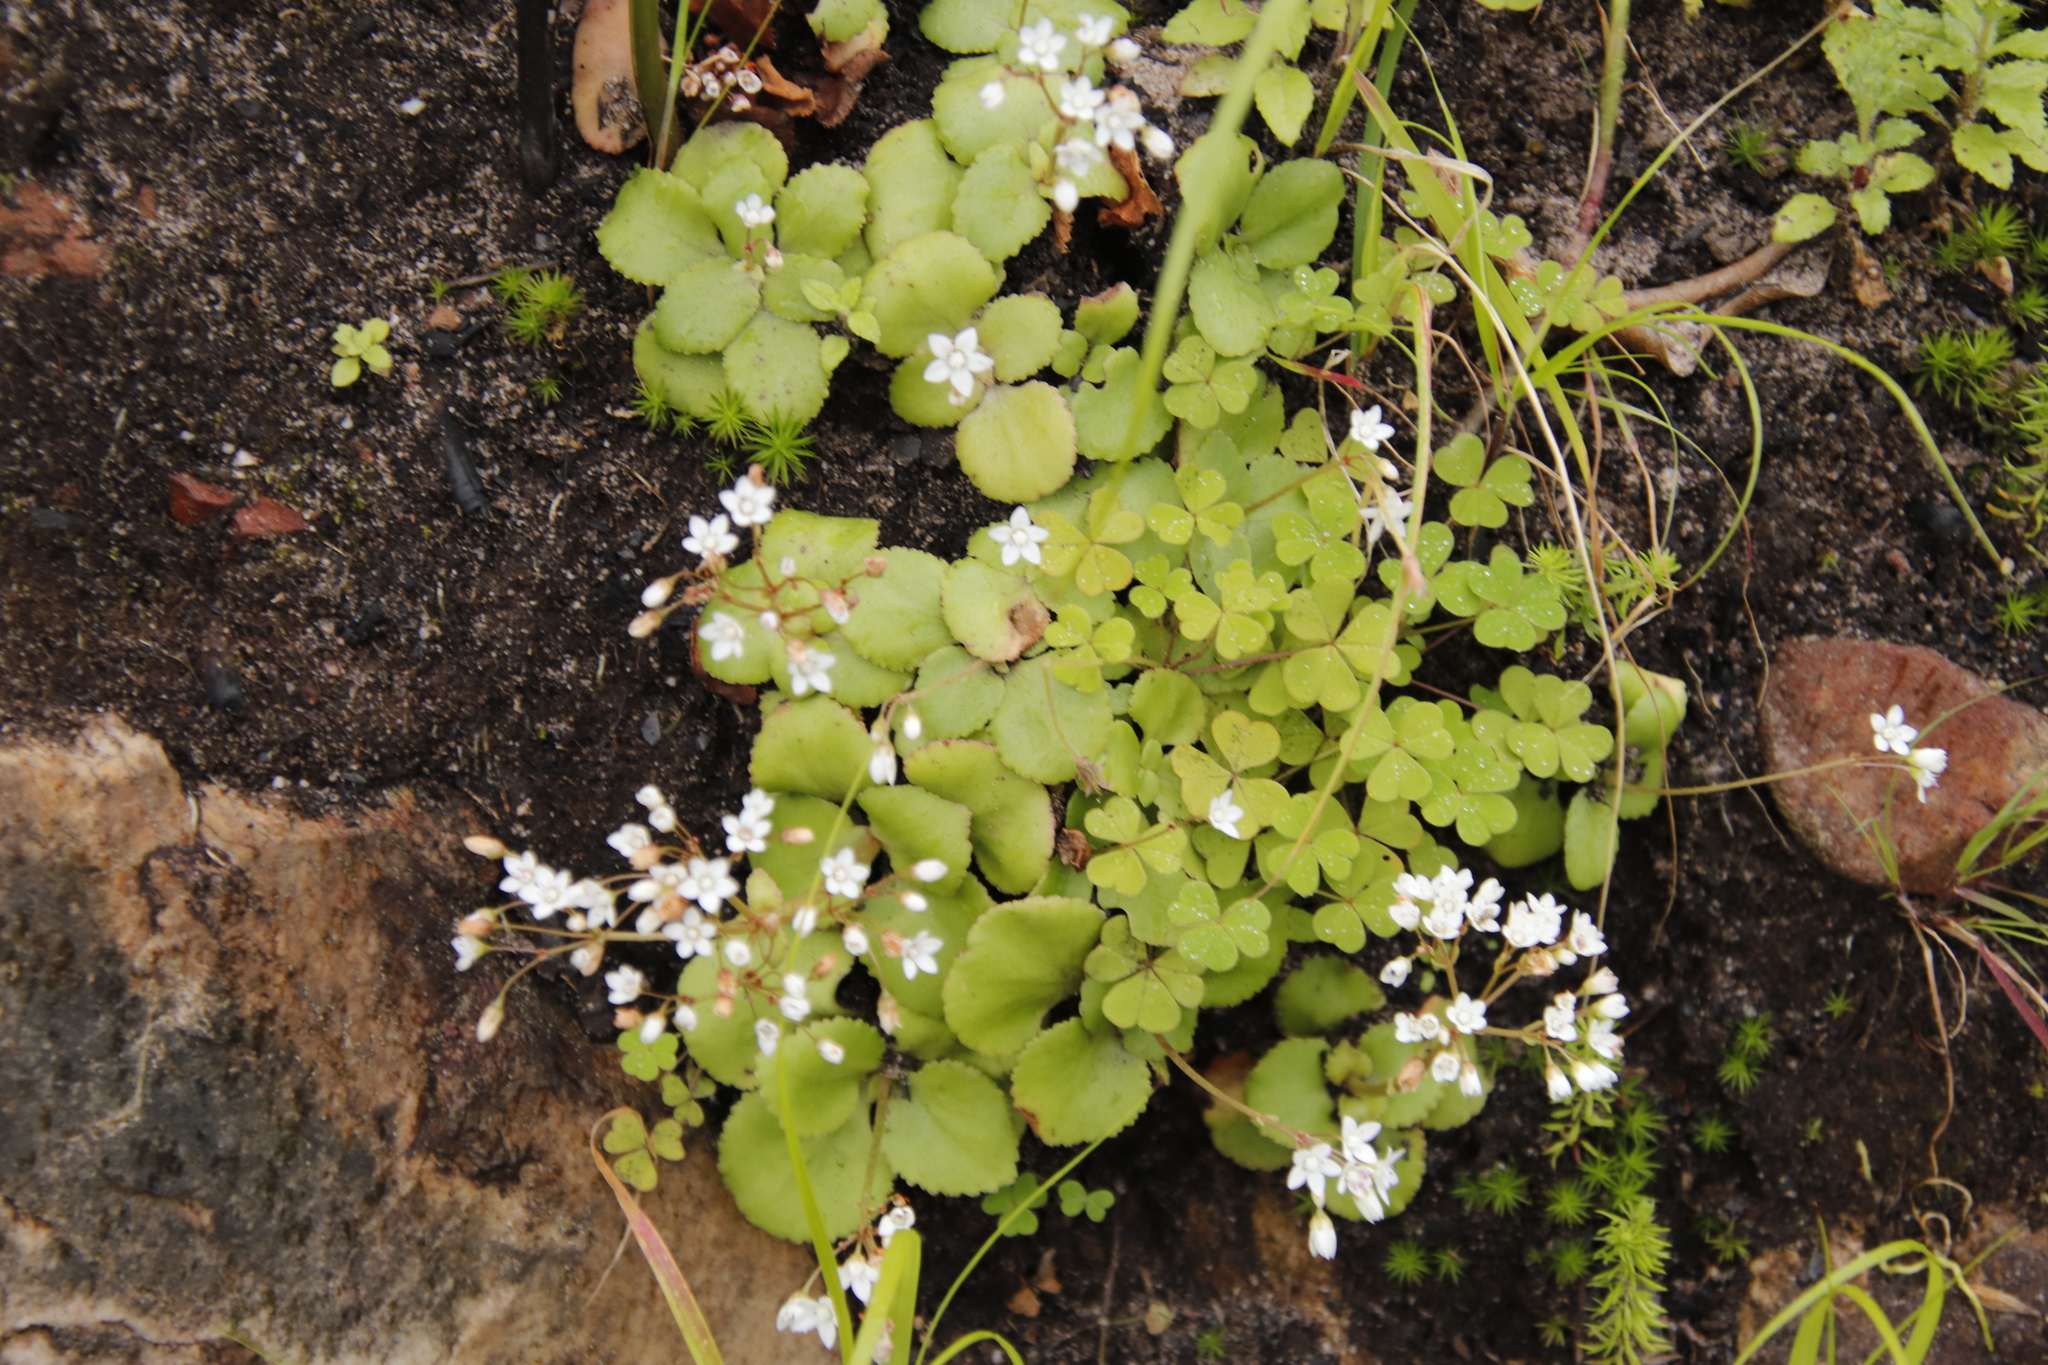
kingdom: Plantae
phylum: Tracheophyta
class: Magnoliopsida
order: Saxifragales
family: Crassulaceae
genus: Crassula
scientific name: Crassula capensis
